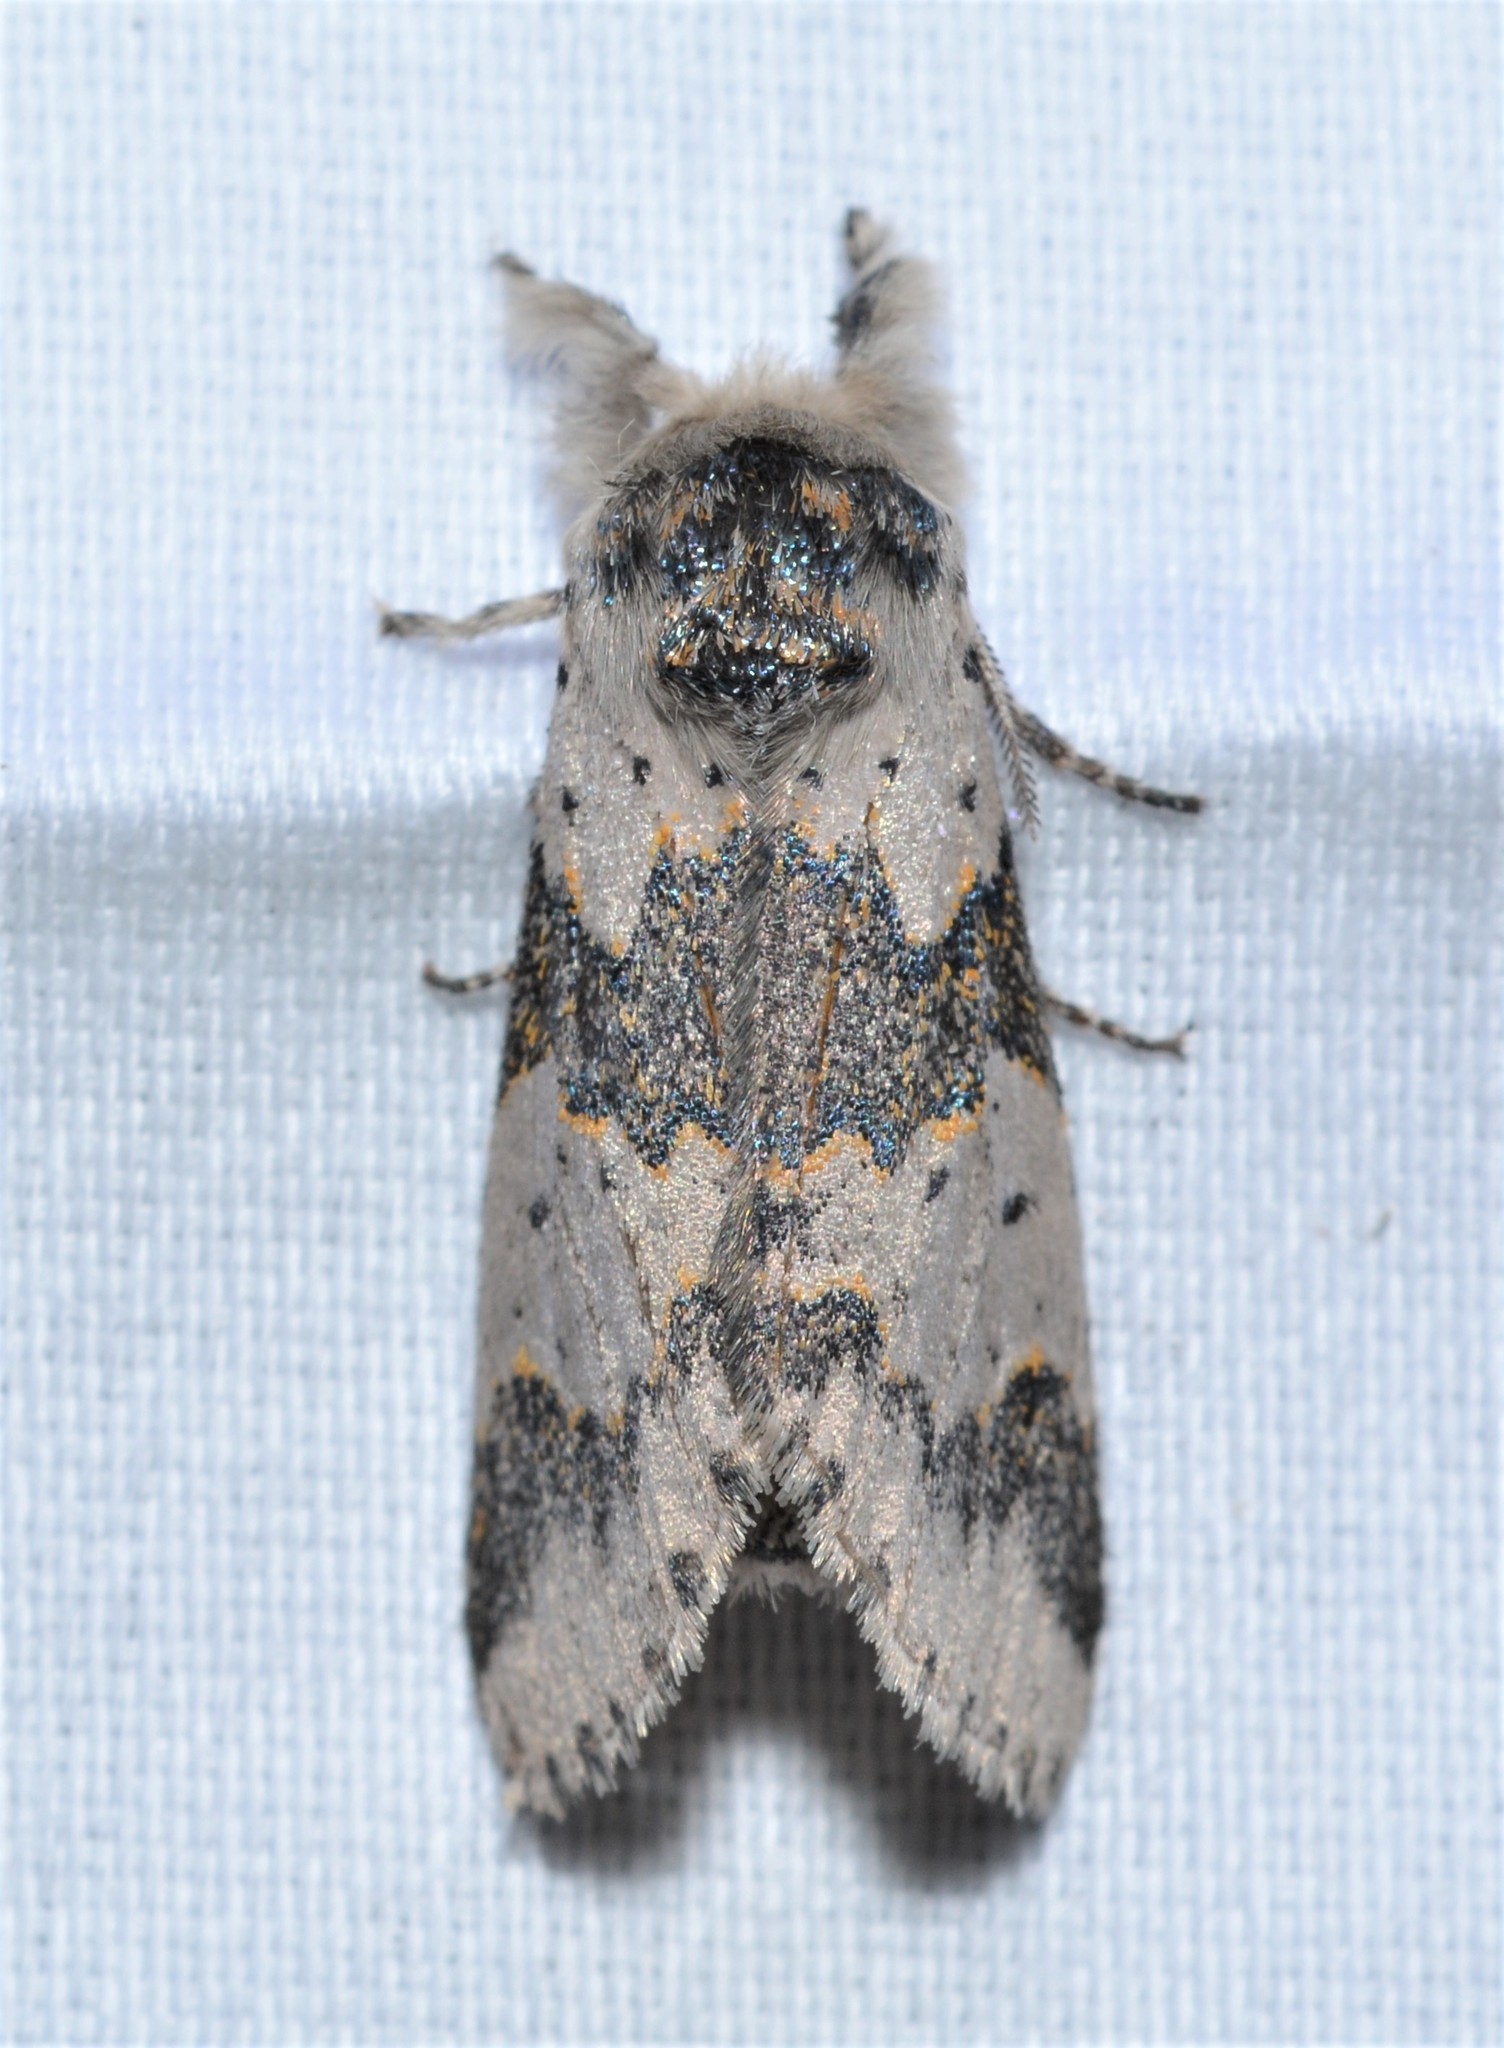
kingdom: Animalia
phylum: Arthropoda
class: Insecta
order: Lepidoptera
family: Notodontidae
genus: Furcula
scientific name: Furcula borealis
